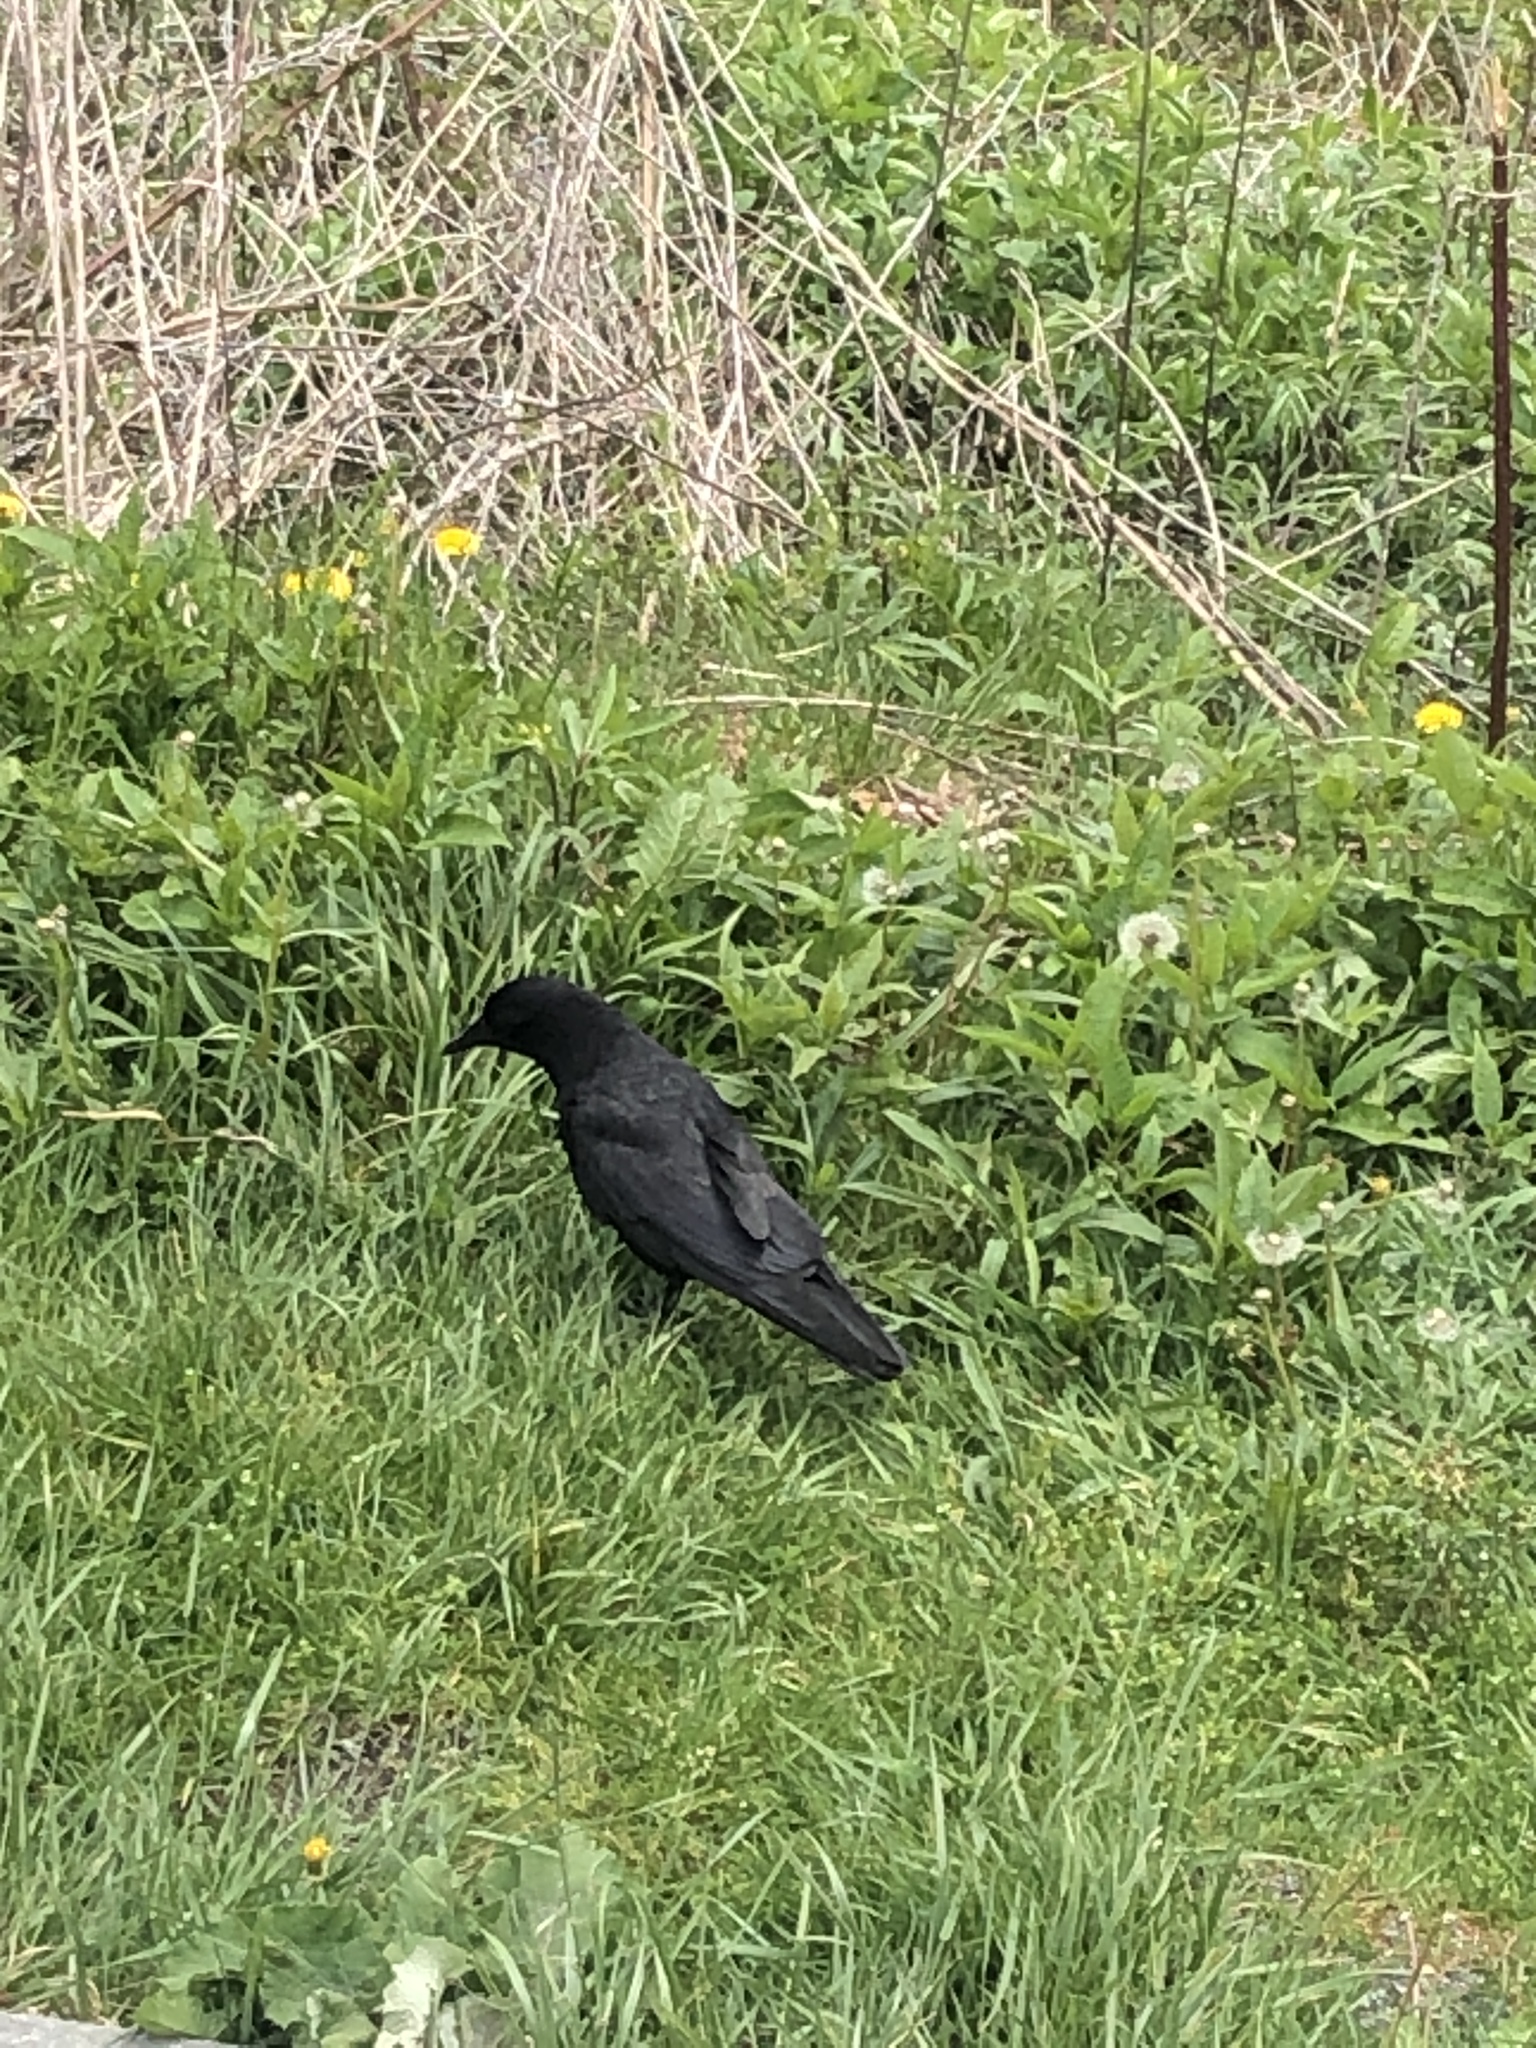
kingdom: Animalia
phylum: Chordata
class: Aves
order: Passeriformes
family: Corvidae
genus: Corvus
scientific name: Corvus brachyrhynchos
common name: American crow
